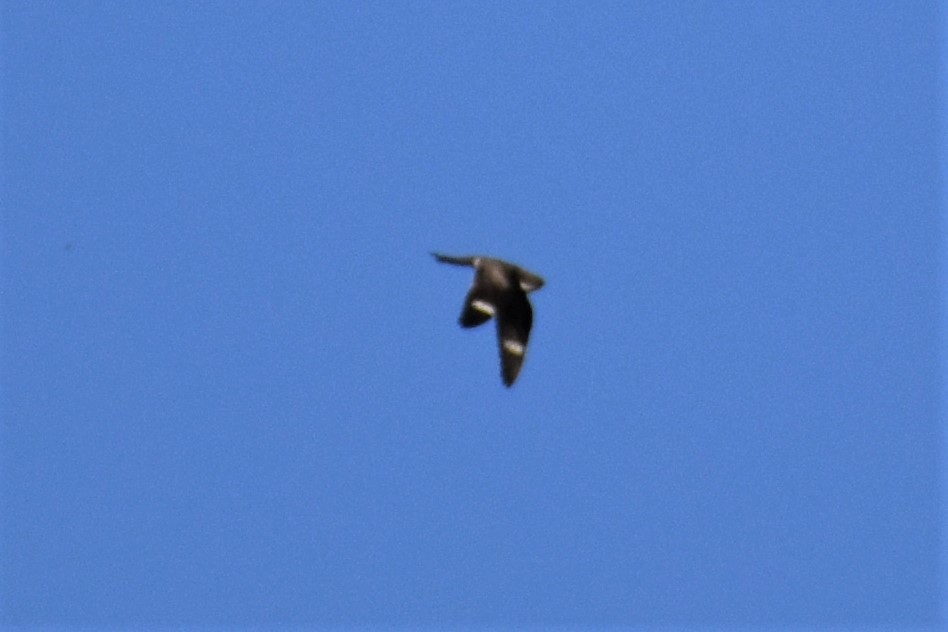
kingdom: Animalia
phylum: Chordata
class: Aves
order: Caprimulgiformes
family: Caprimulgidae
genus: Chordeiles
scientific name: Chordeiles minor
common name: Common nighthawk
